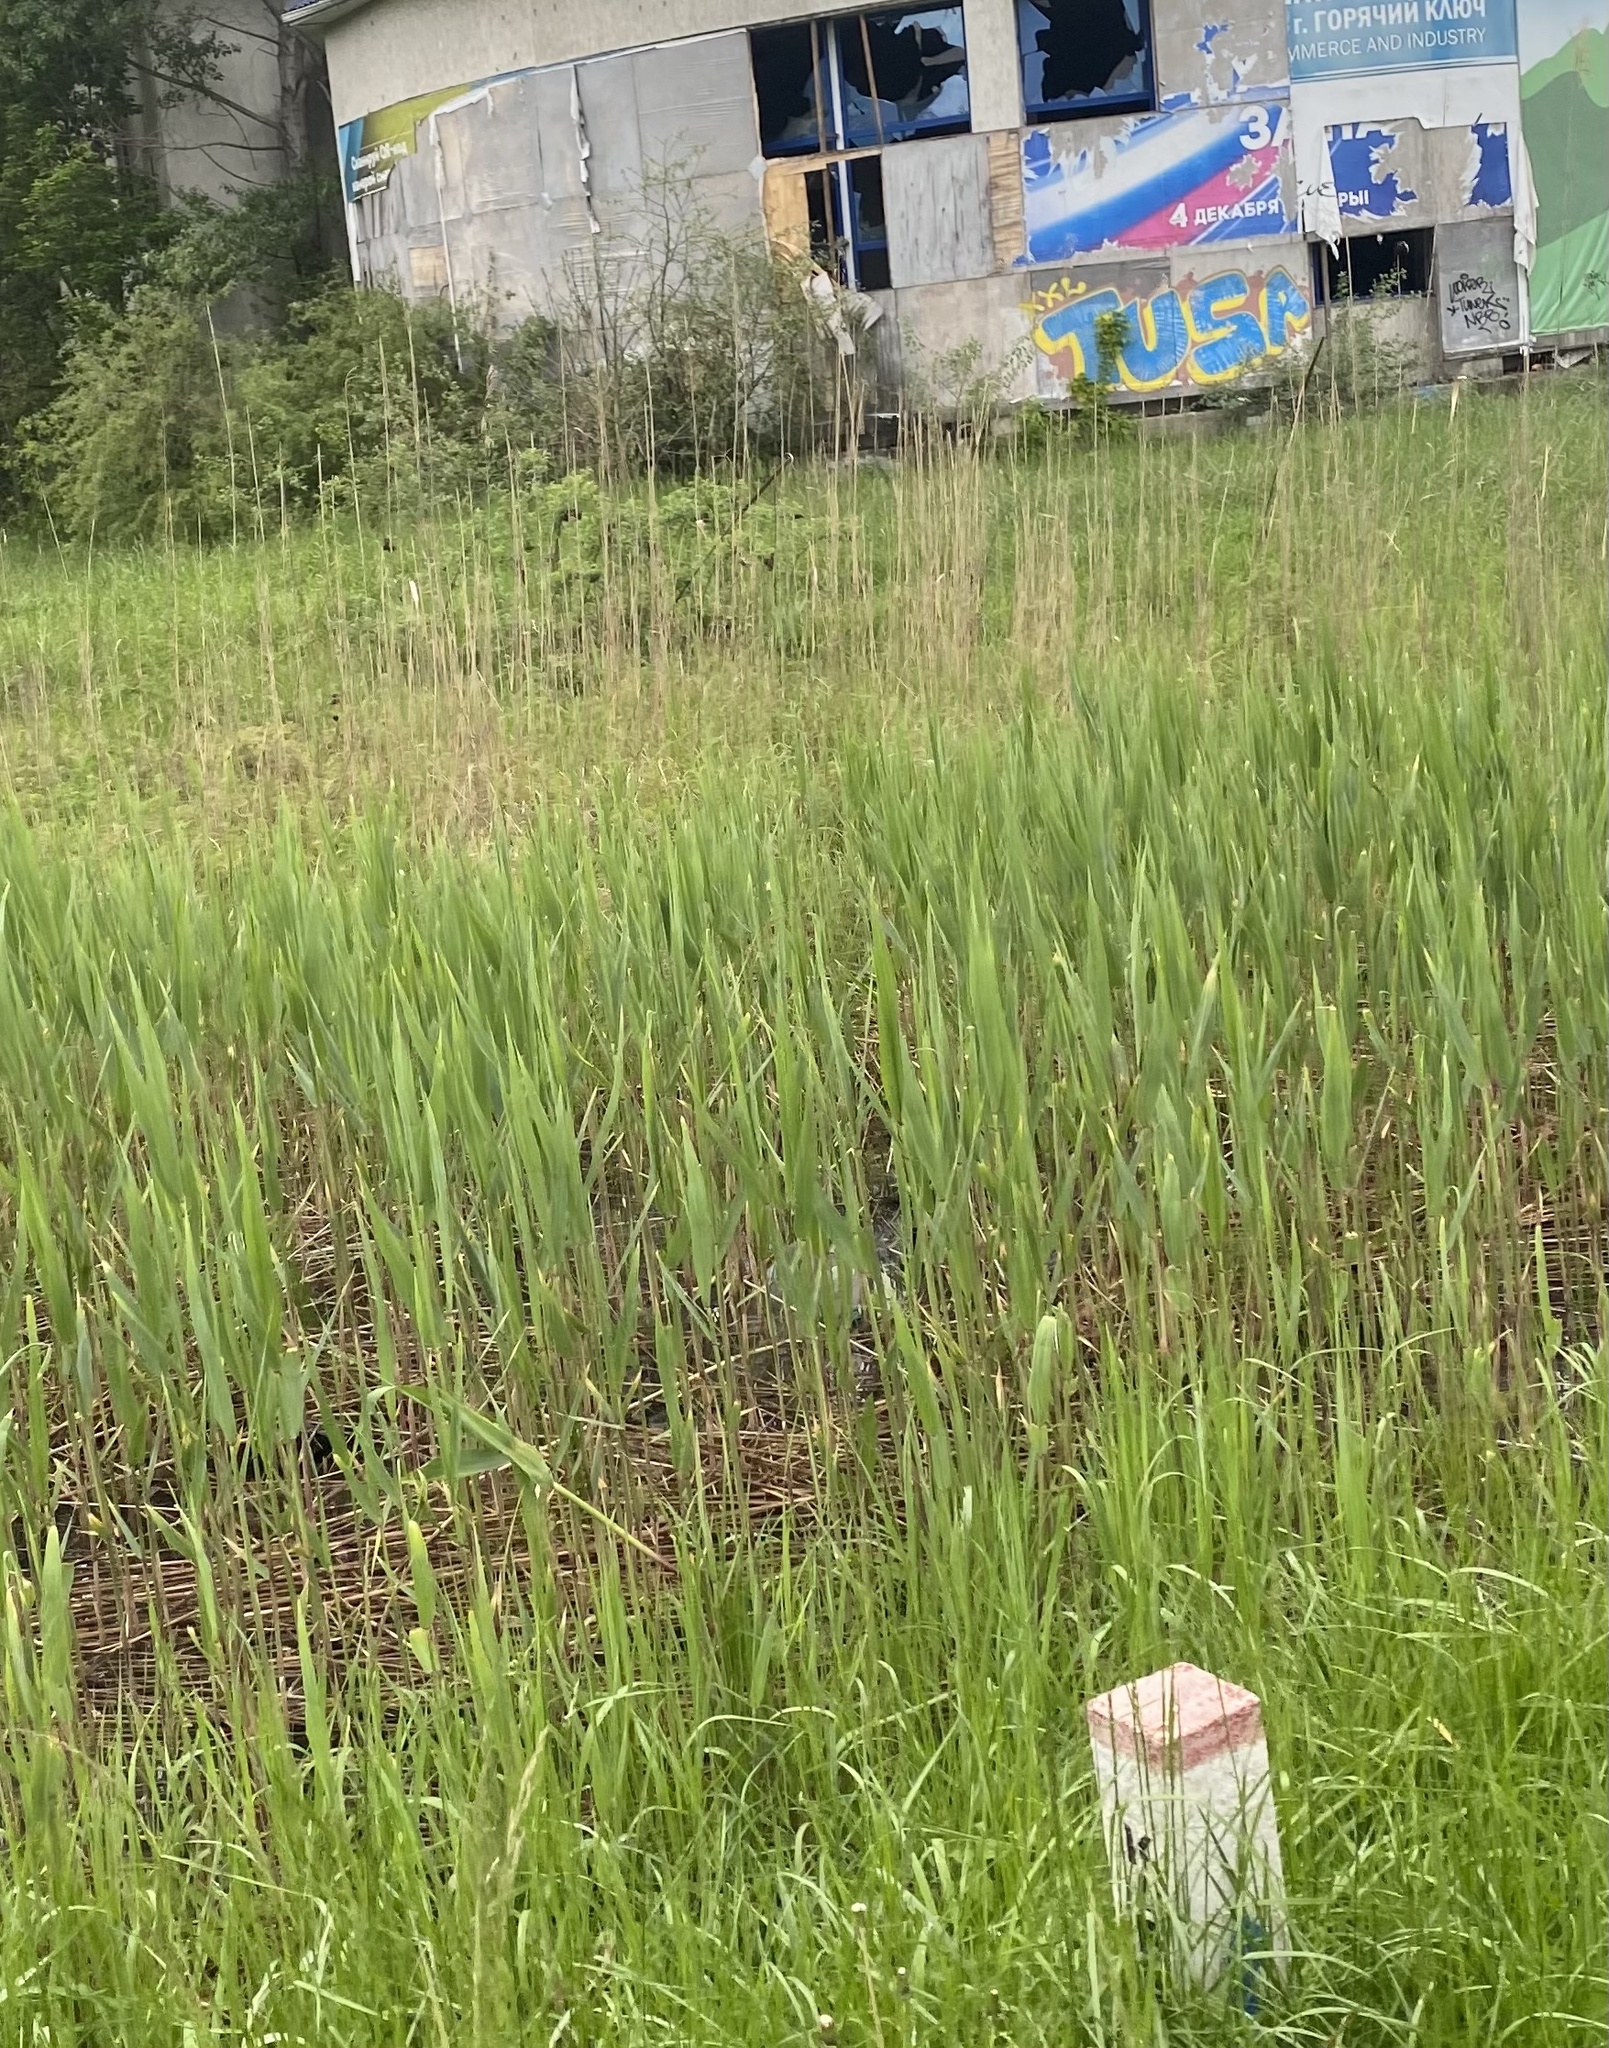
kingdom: Plantae
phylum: Tracheophyta
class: Liliopsida
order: Poales
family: Poaceae
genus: Phragmites
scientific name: Phragmites australis
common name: Common reed
